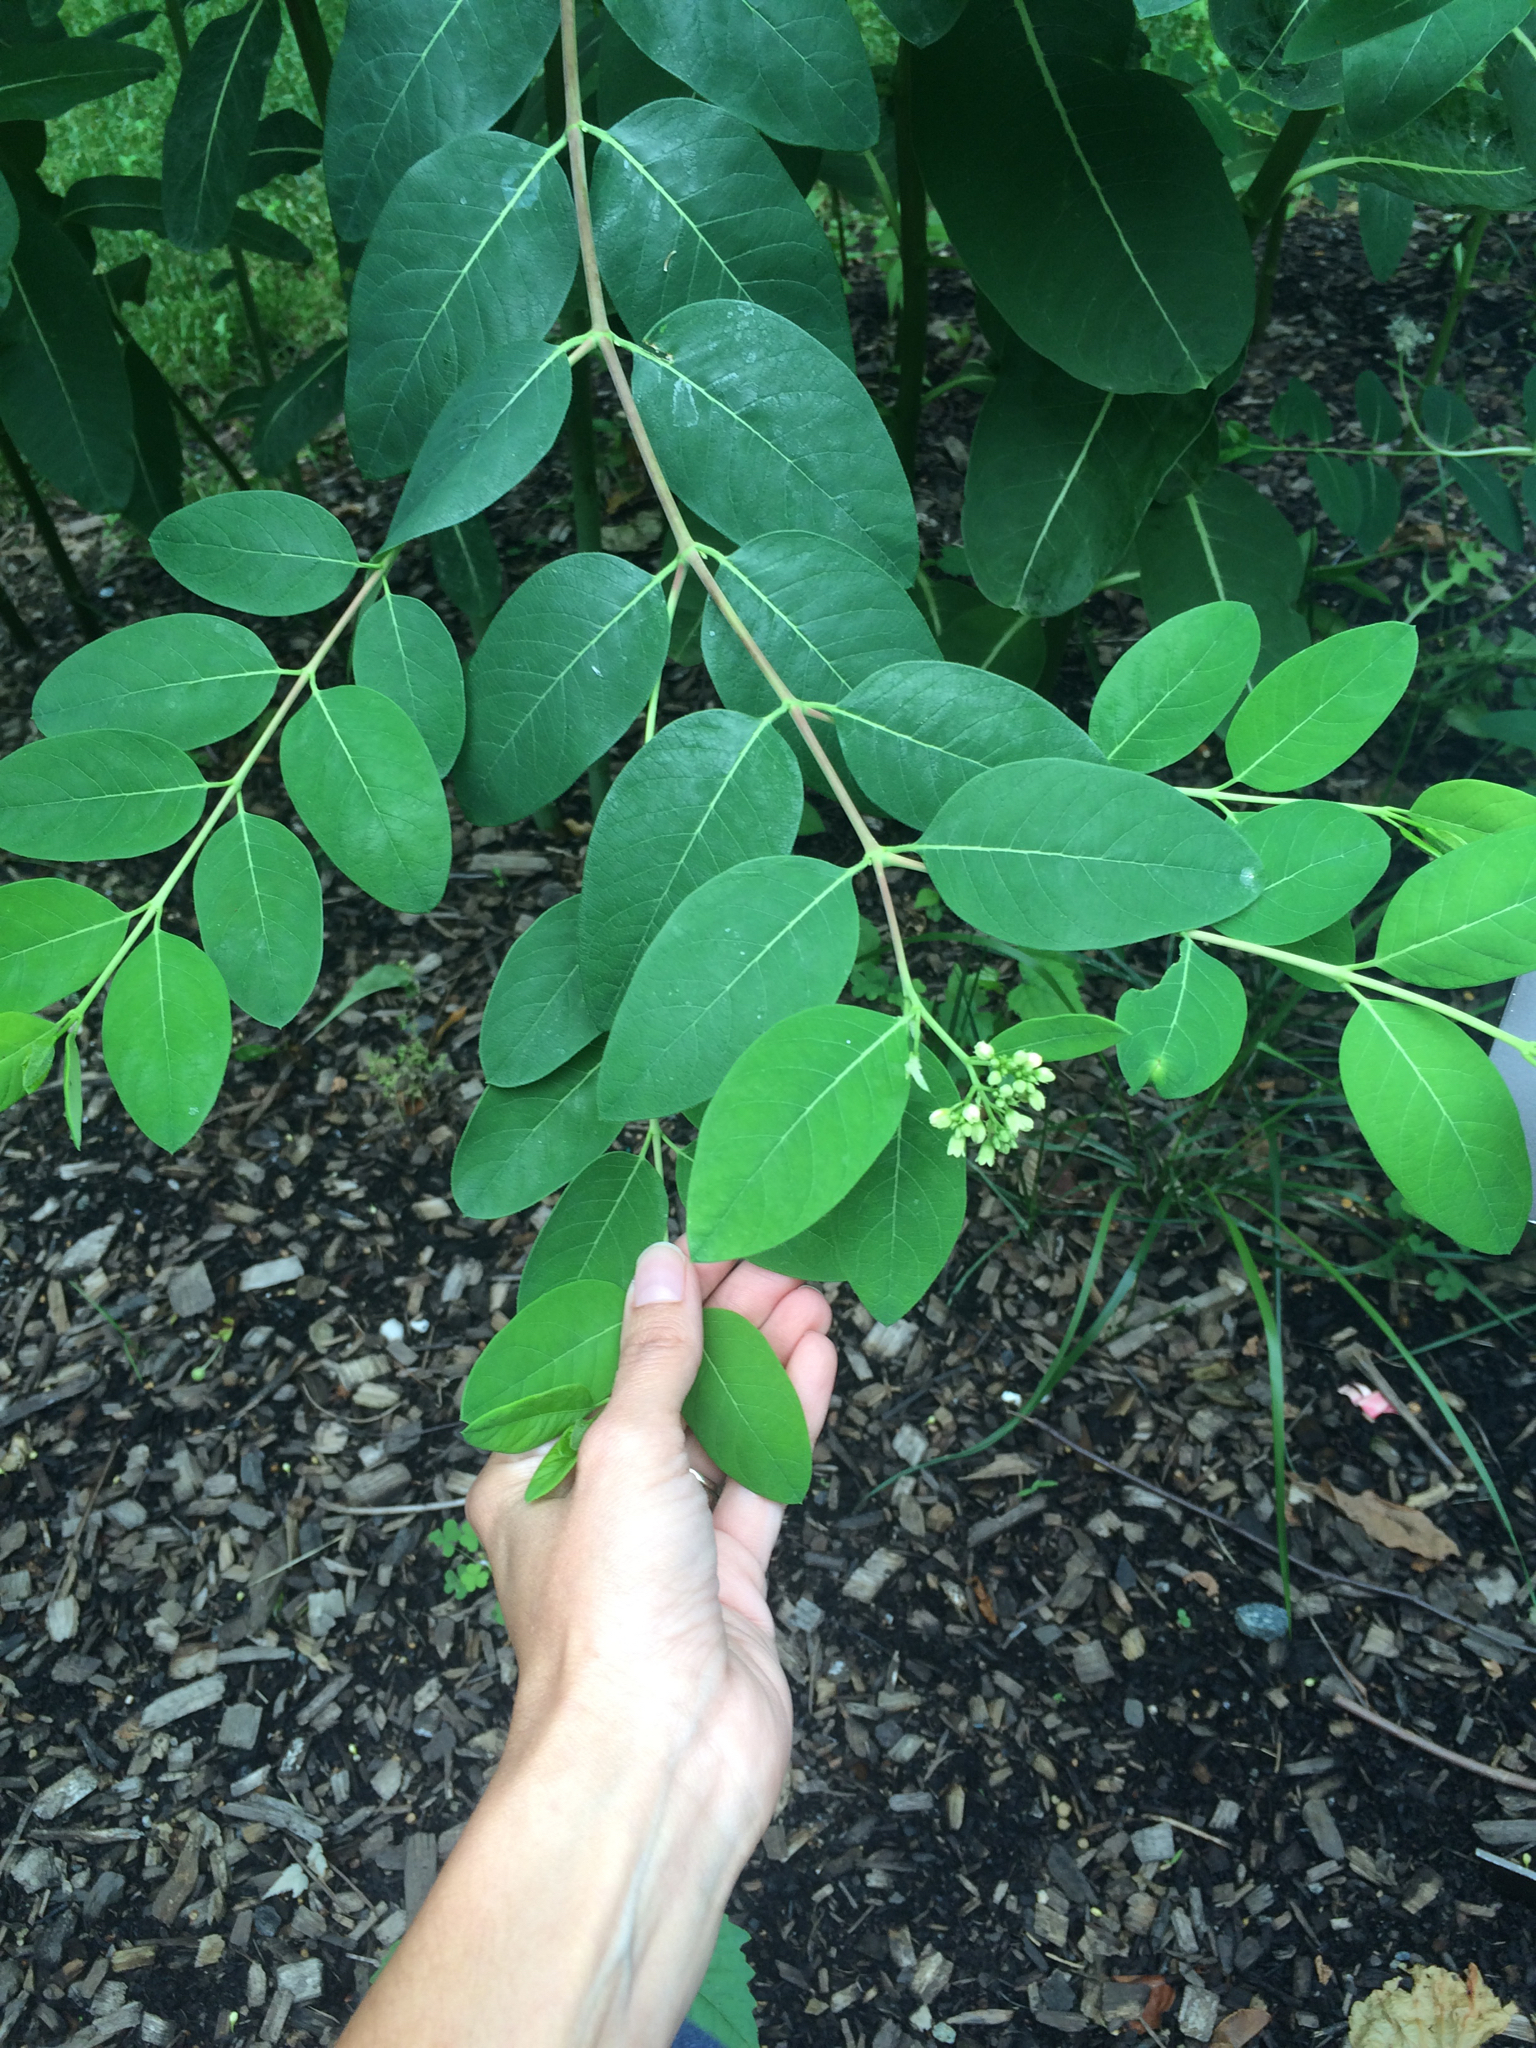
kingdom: Plantae
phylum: Tracheophyta
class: Magnoliopsida
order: Gentianales
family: Apocynaceae
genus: Apocynum
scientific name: Apocynum cannabinum
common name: Hemp dogbane
